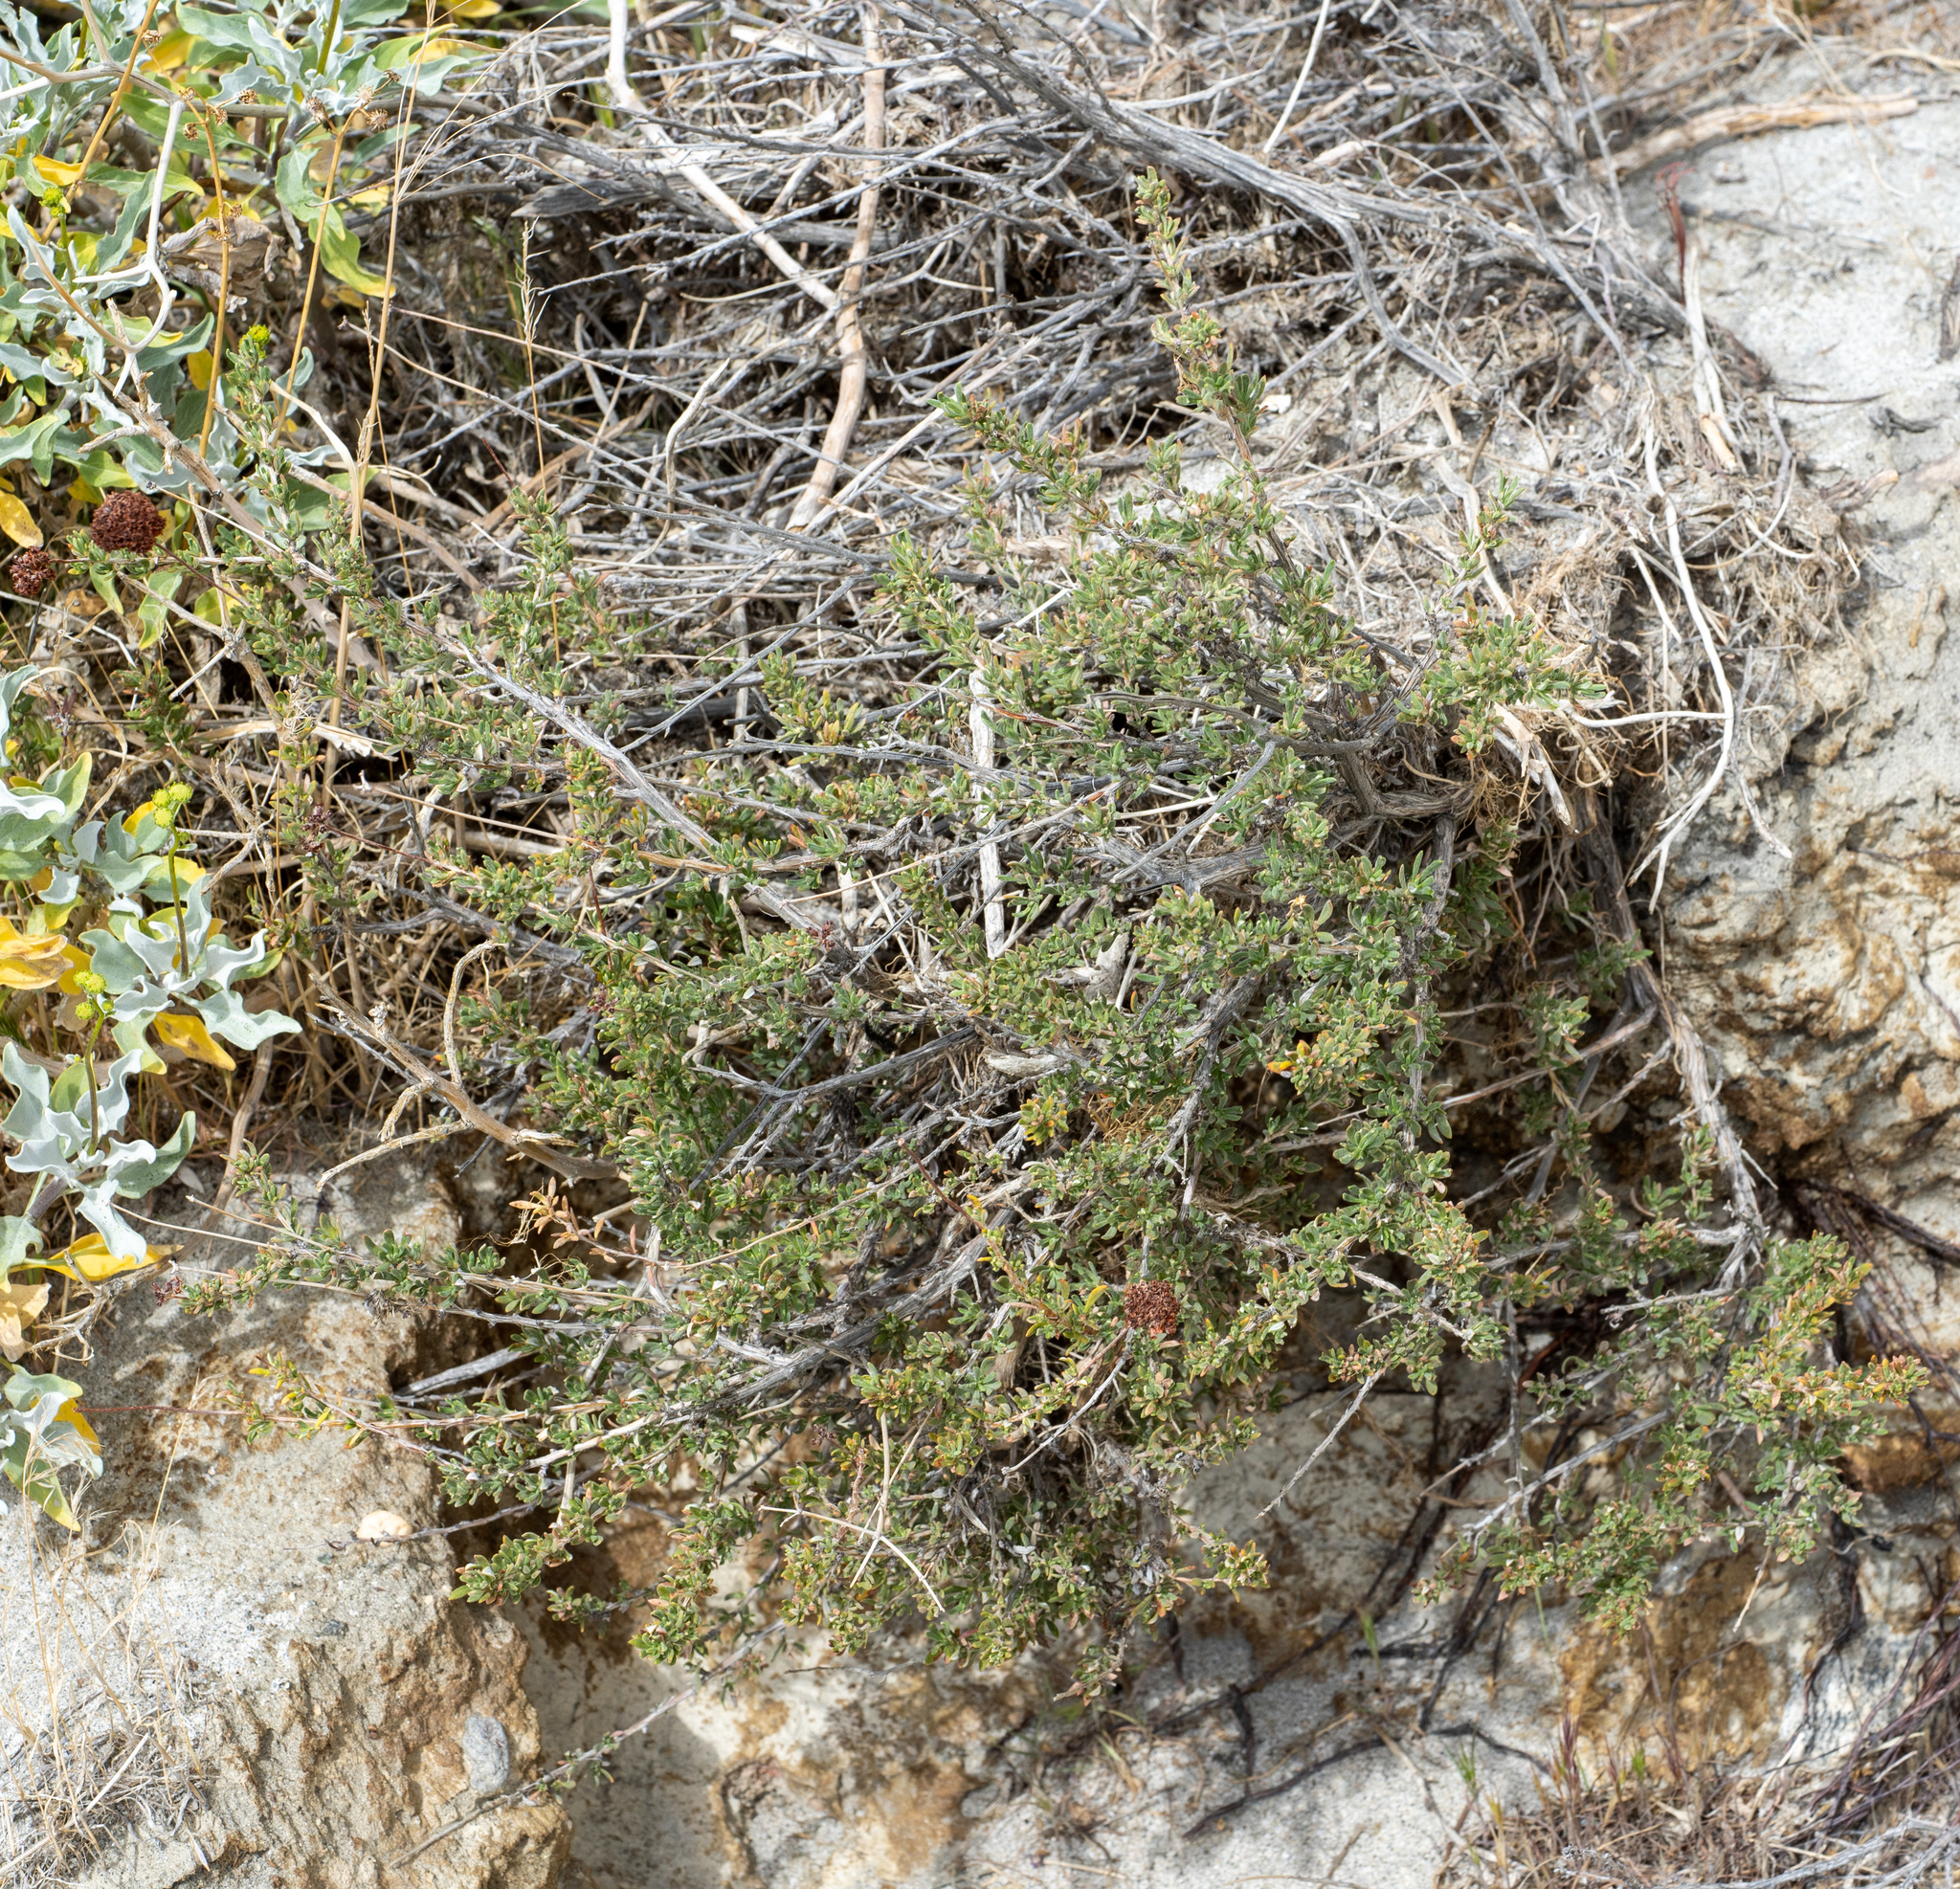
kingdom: Plantae
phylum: Tracheophyta
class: Magnoliopsida
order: Caryophyllales
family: Polygonaceae
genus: Eriogonum
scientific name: Eriogonum fasciculatum
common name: California wild buckwheat
